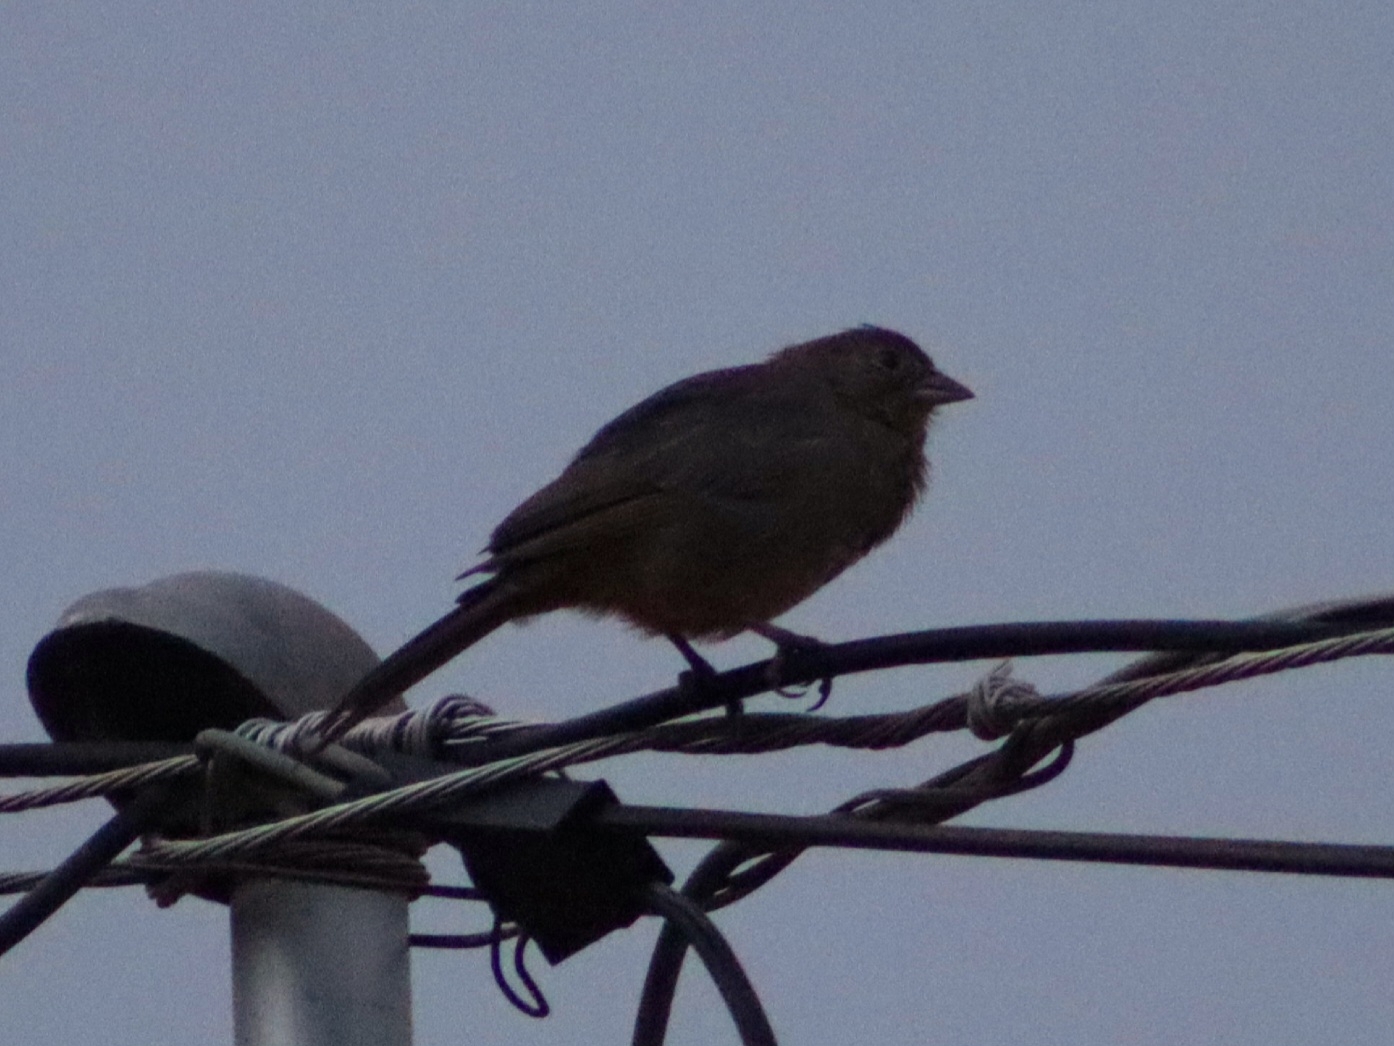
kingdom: Animalia
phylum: Chordata
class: Aves
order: Passeriformes
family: Passerellidae
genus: Melozone
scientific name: Melozone fusca
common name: Canyon towhee
